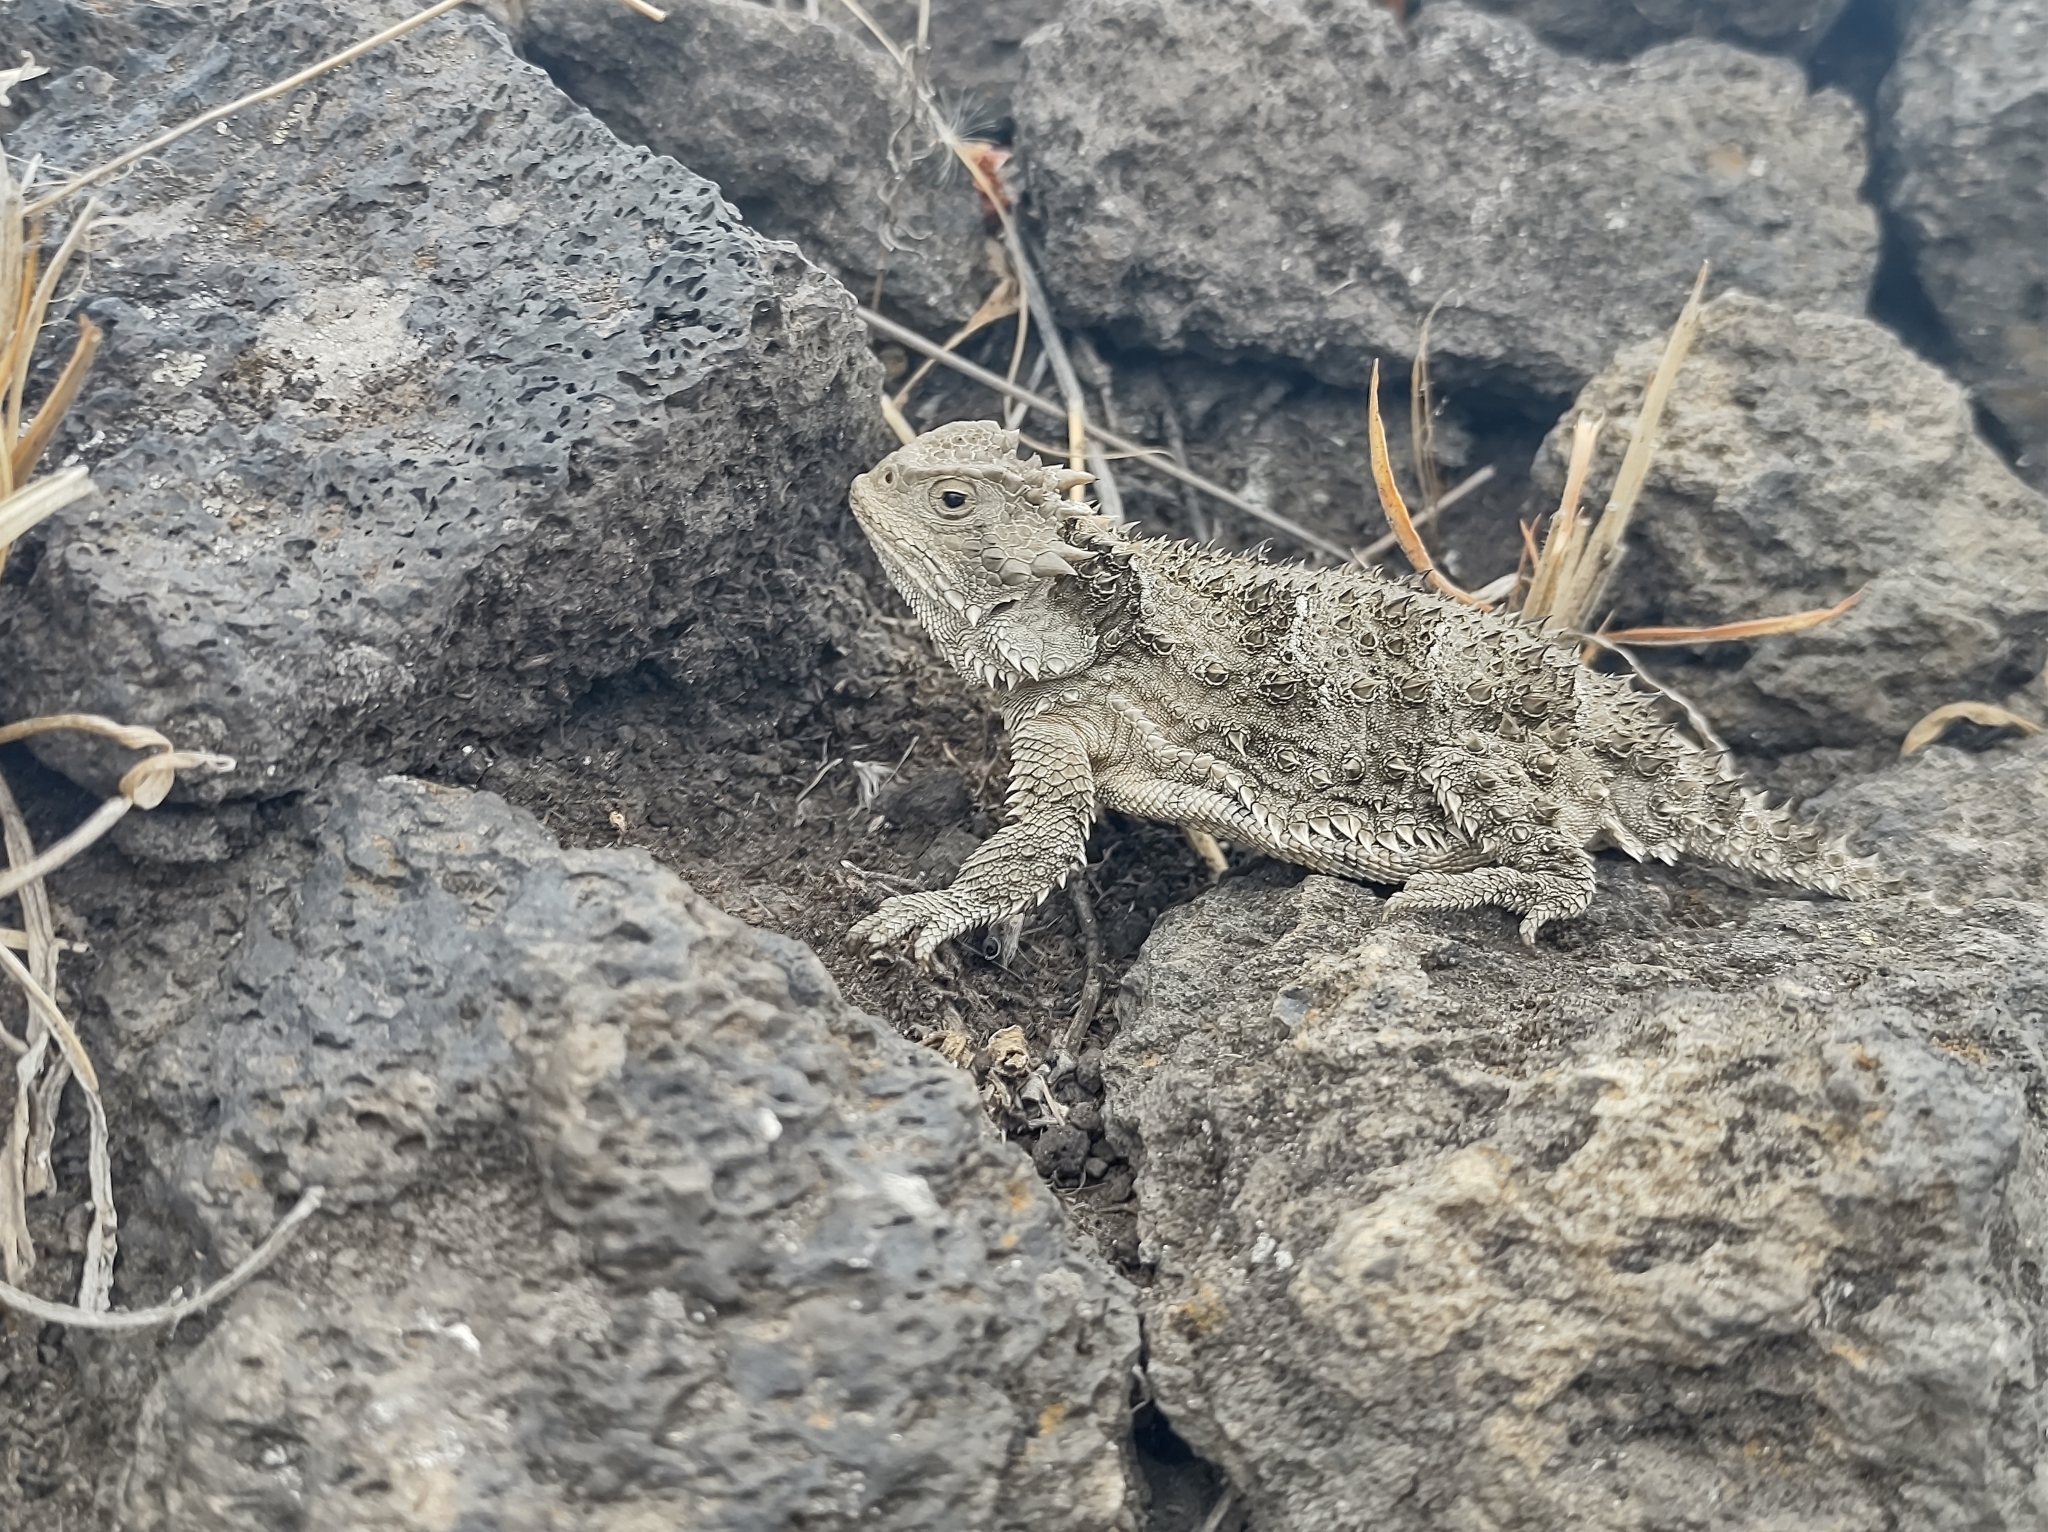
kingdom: Animalia
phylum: Chordata
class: Squamata
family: Phrynosomatidae
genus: Phrynosoma
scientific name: Phrynosoma orbiculare
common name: Mountain horned lizard
